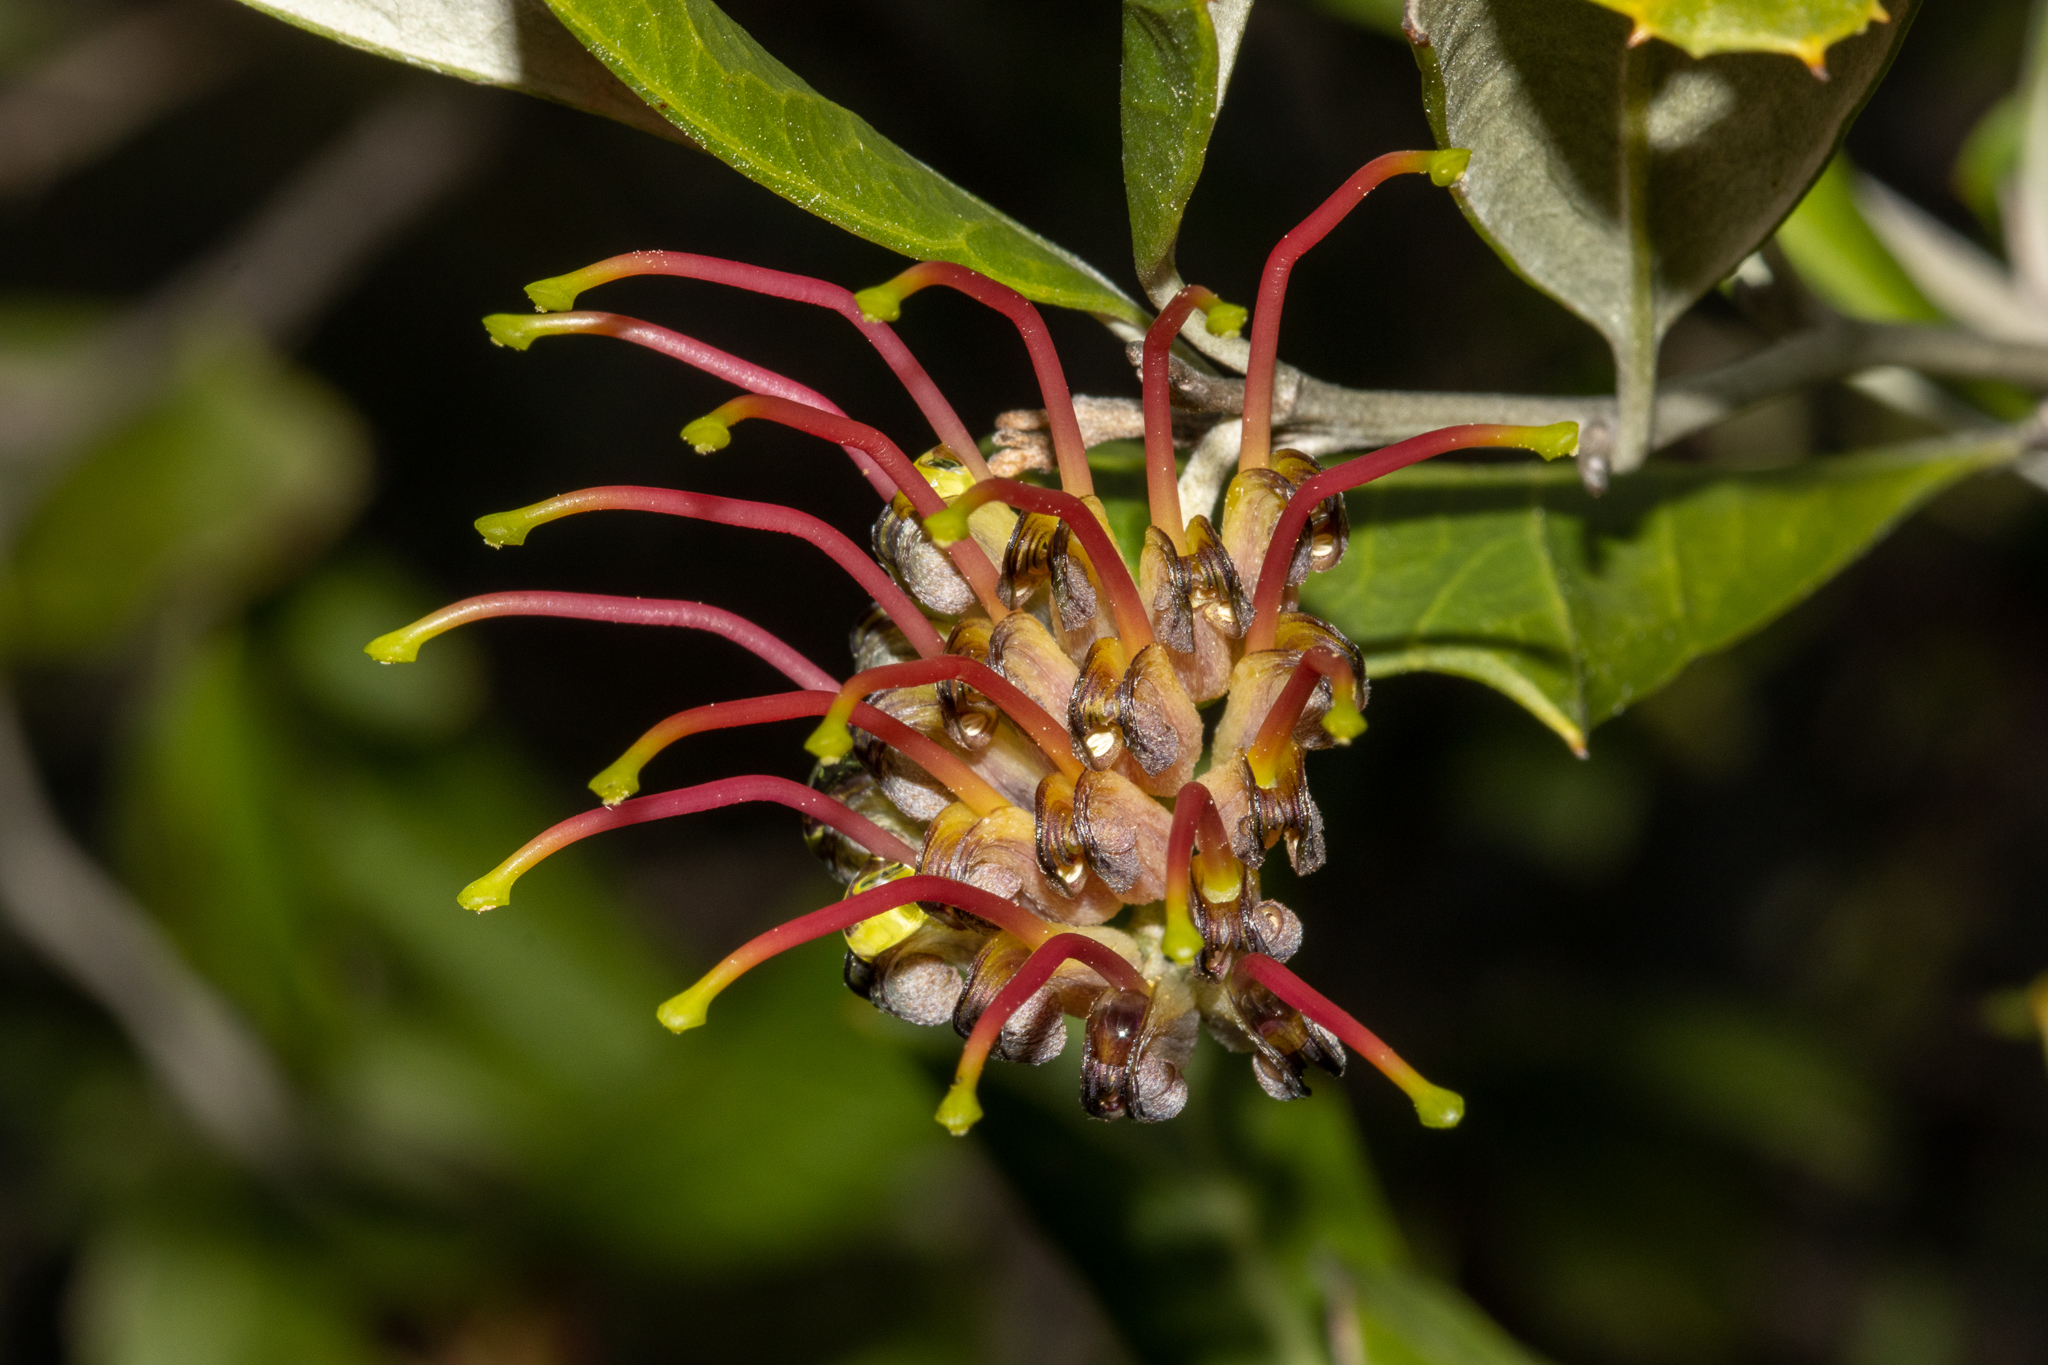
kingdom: Plantae
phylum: Tracheophyta
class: Magnoliopsida
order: Proteales
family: Proteaceae
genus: Grevillea
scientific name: Grevillea ilicifolia
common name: Holly grevillea
